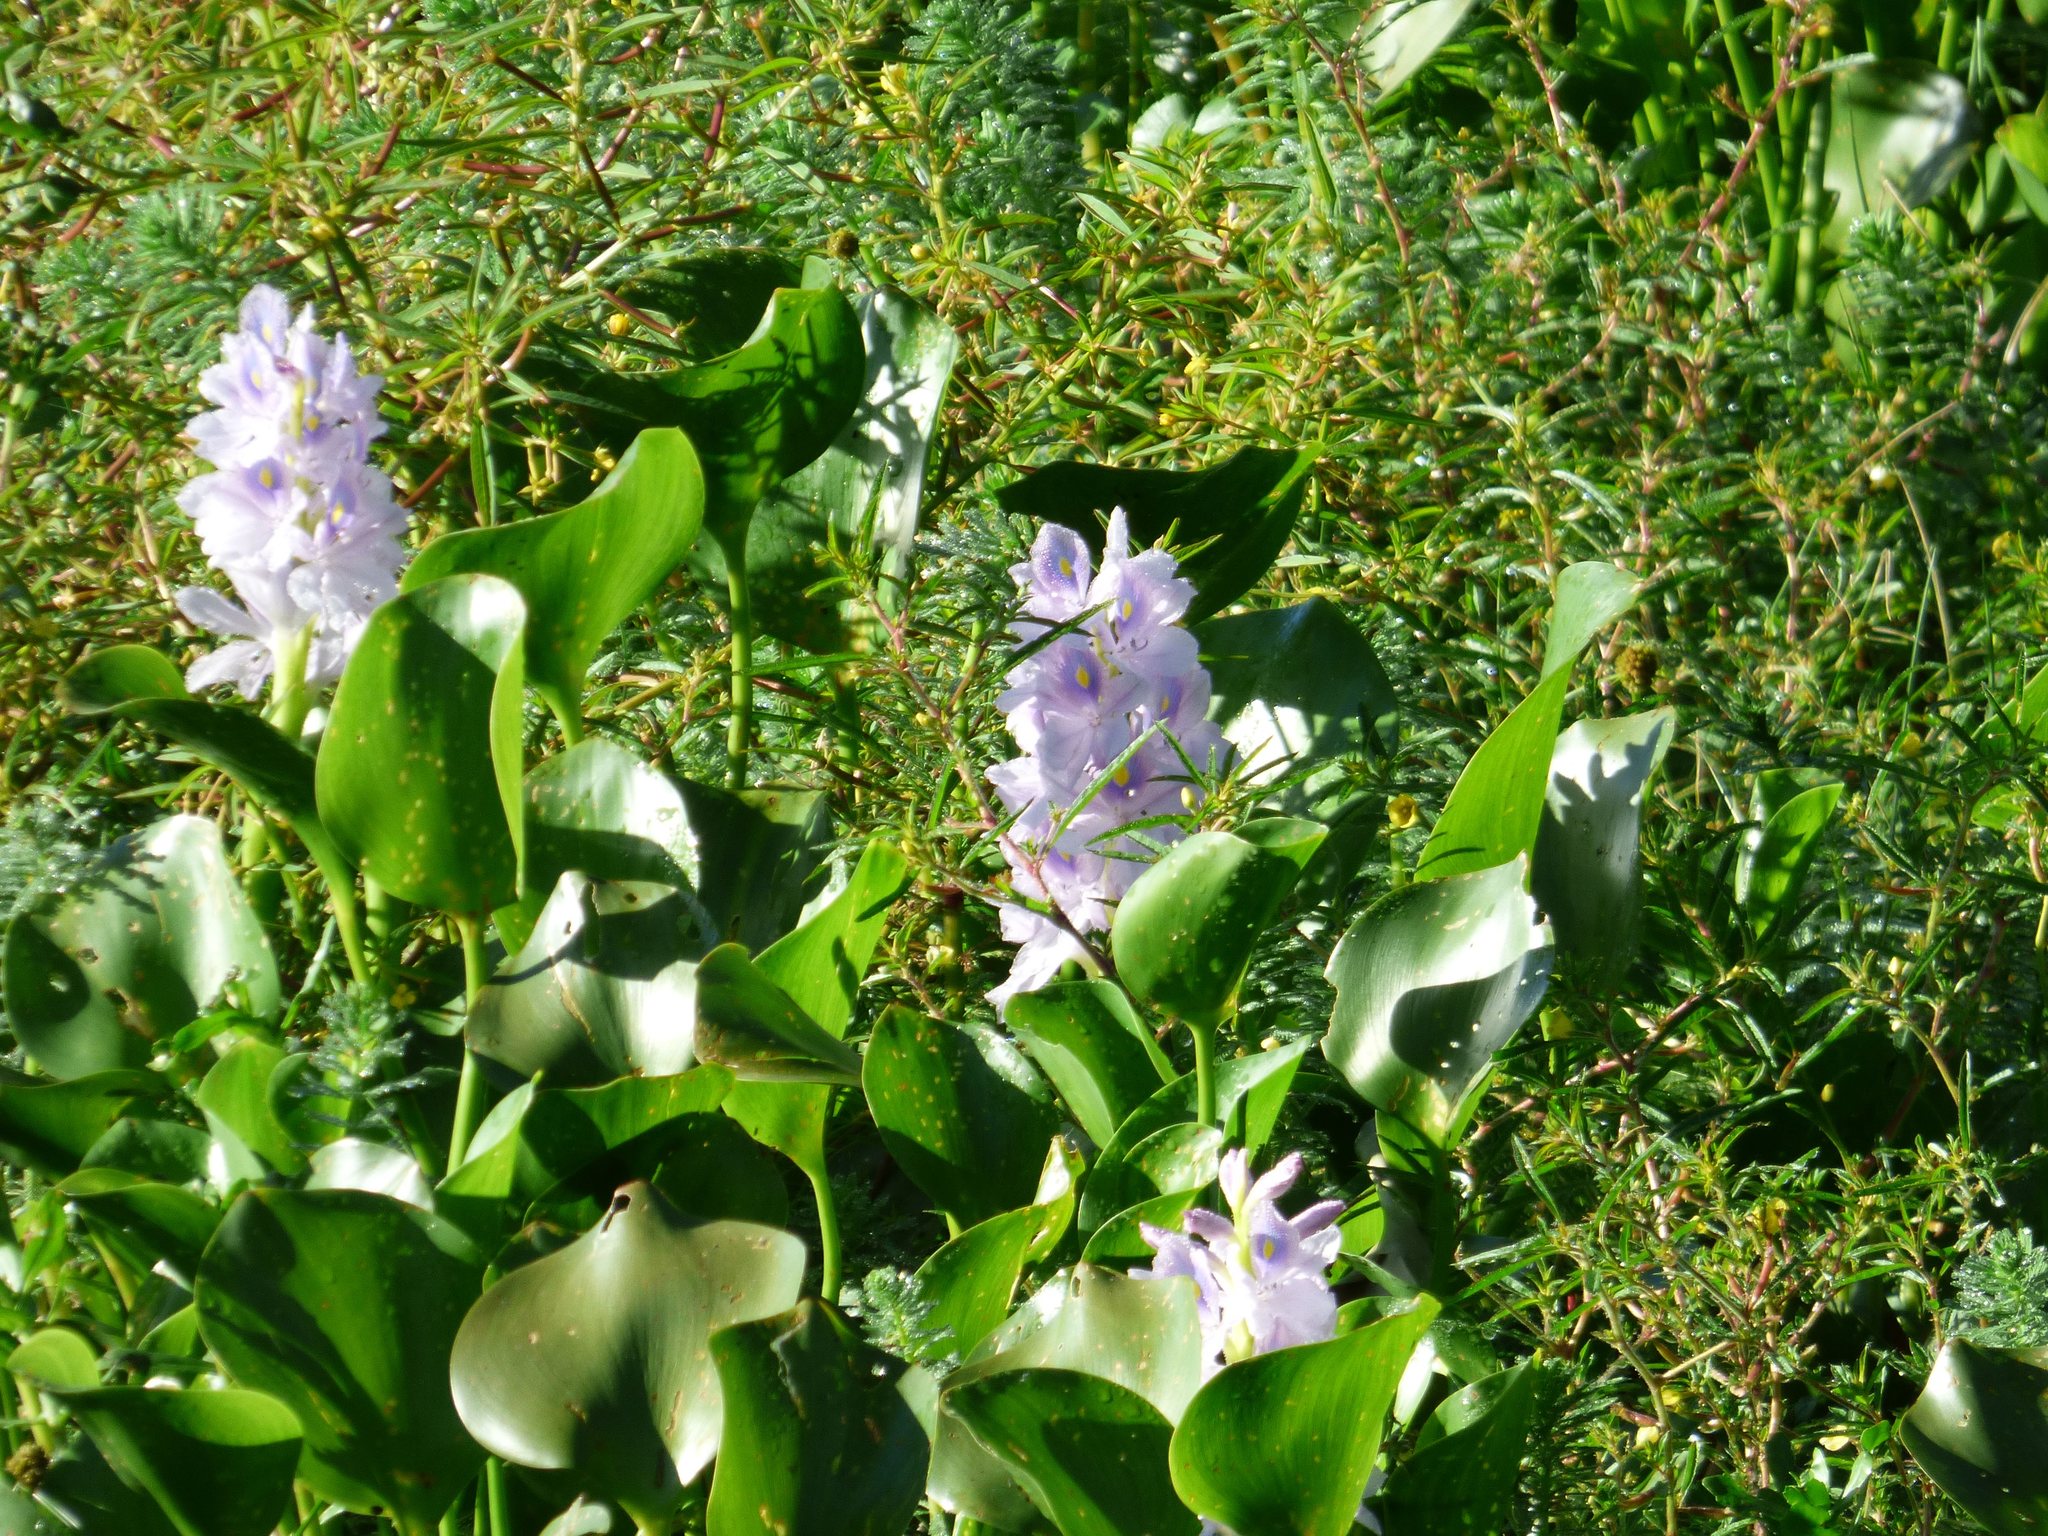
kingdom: Plantae
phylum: Tracheophyta
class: Liliopsida
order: Commelinales
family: Pontederiaceae
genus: Pontederia
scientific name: Pontederia crassipes
